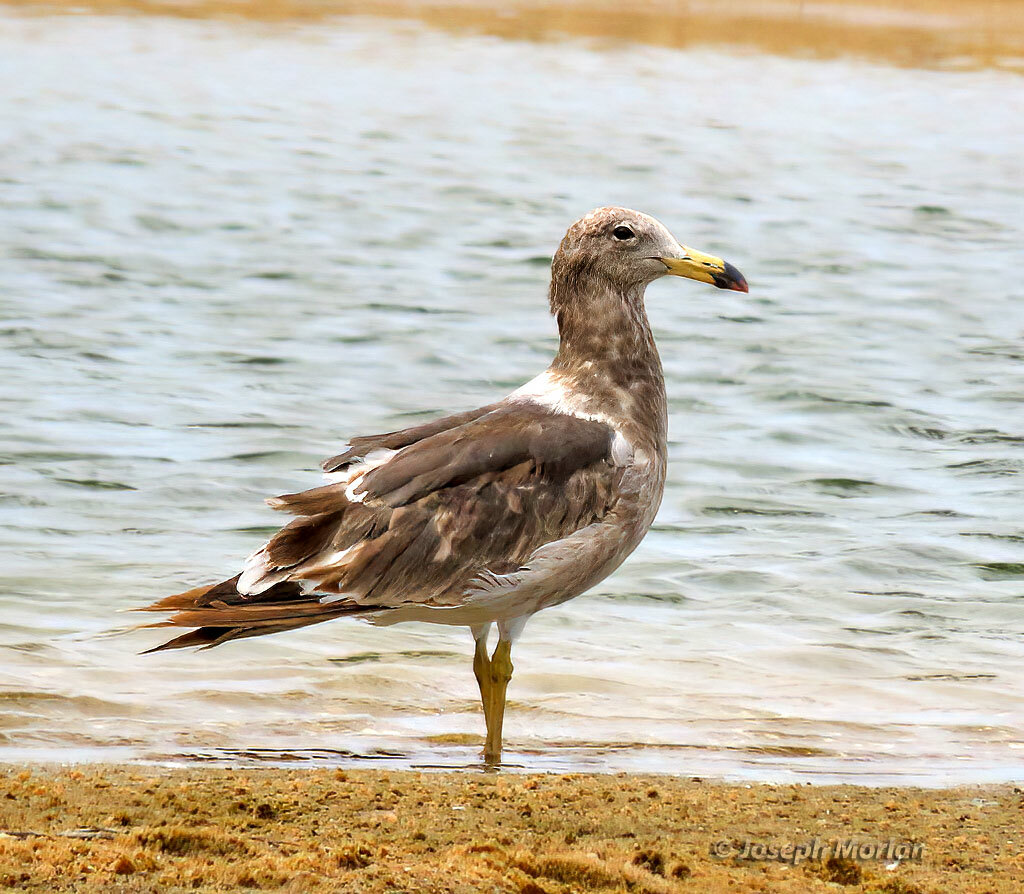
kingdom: Animalia
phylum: Chordata
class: Aves
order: Charadriiformes
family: Laridae
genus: Larus
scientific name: Larus atlanticus
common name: Olrog's gull
